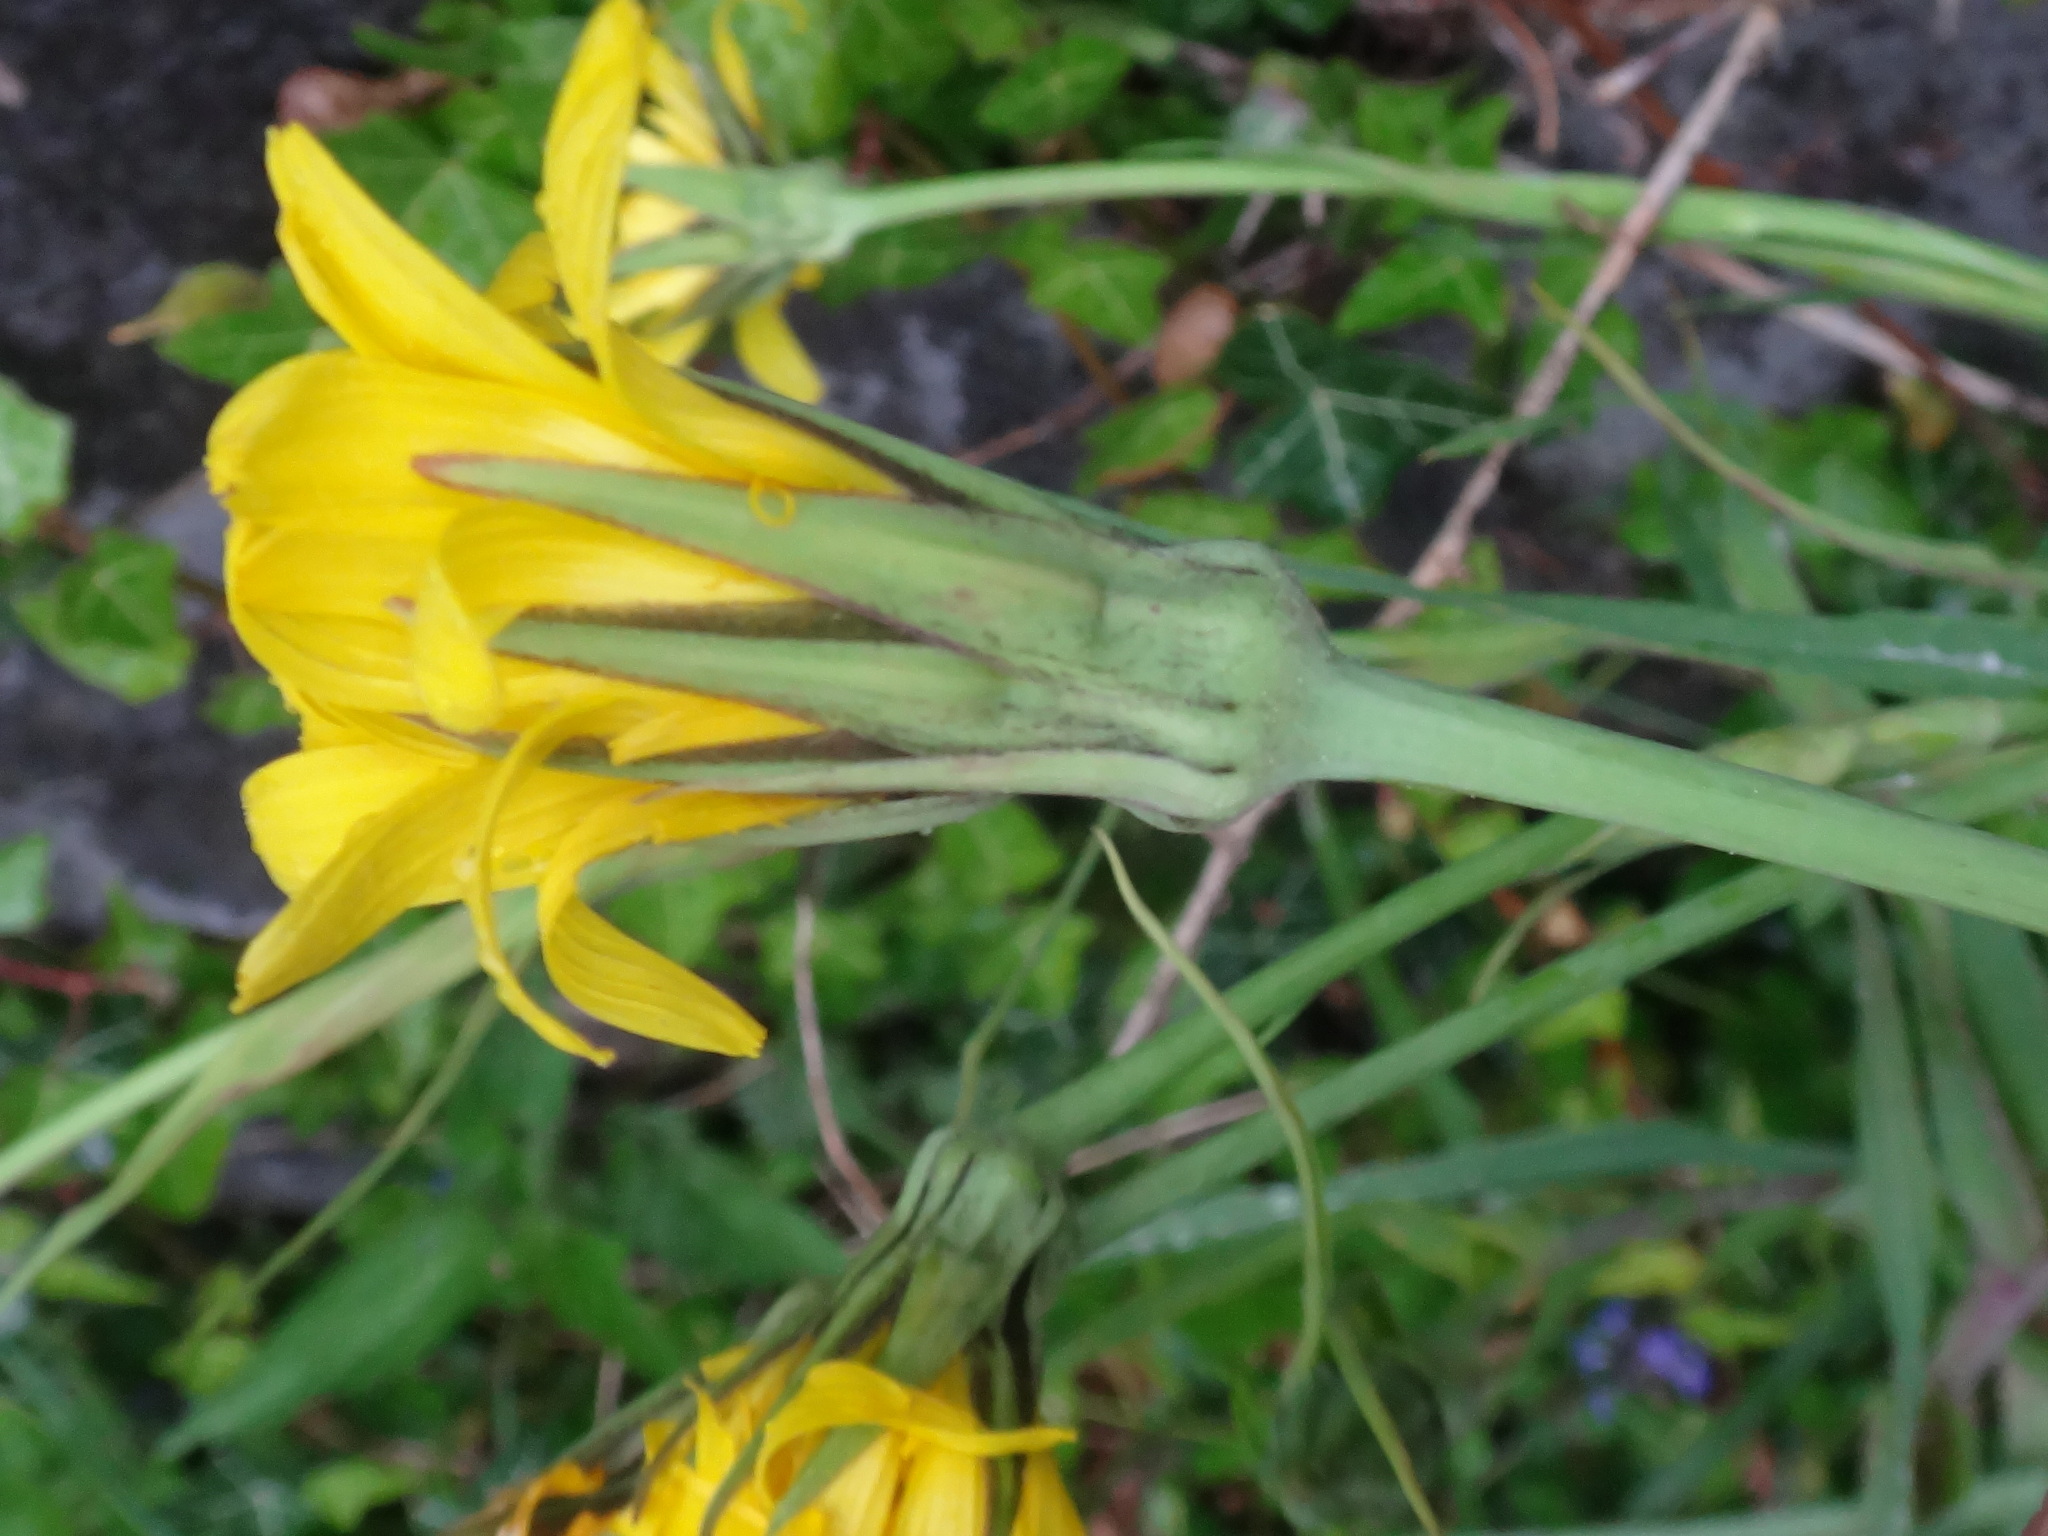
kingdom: Plantae
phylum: Tracheophyta
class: Magnoliopsida
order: Asterales
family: Asteraceae
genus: Tragopogon
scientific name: Tragopogon orientalis
